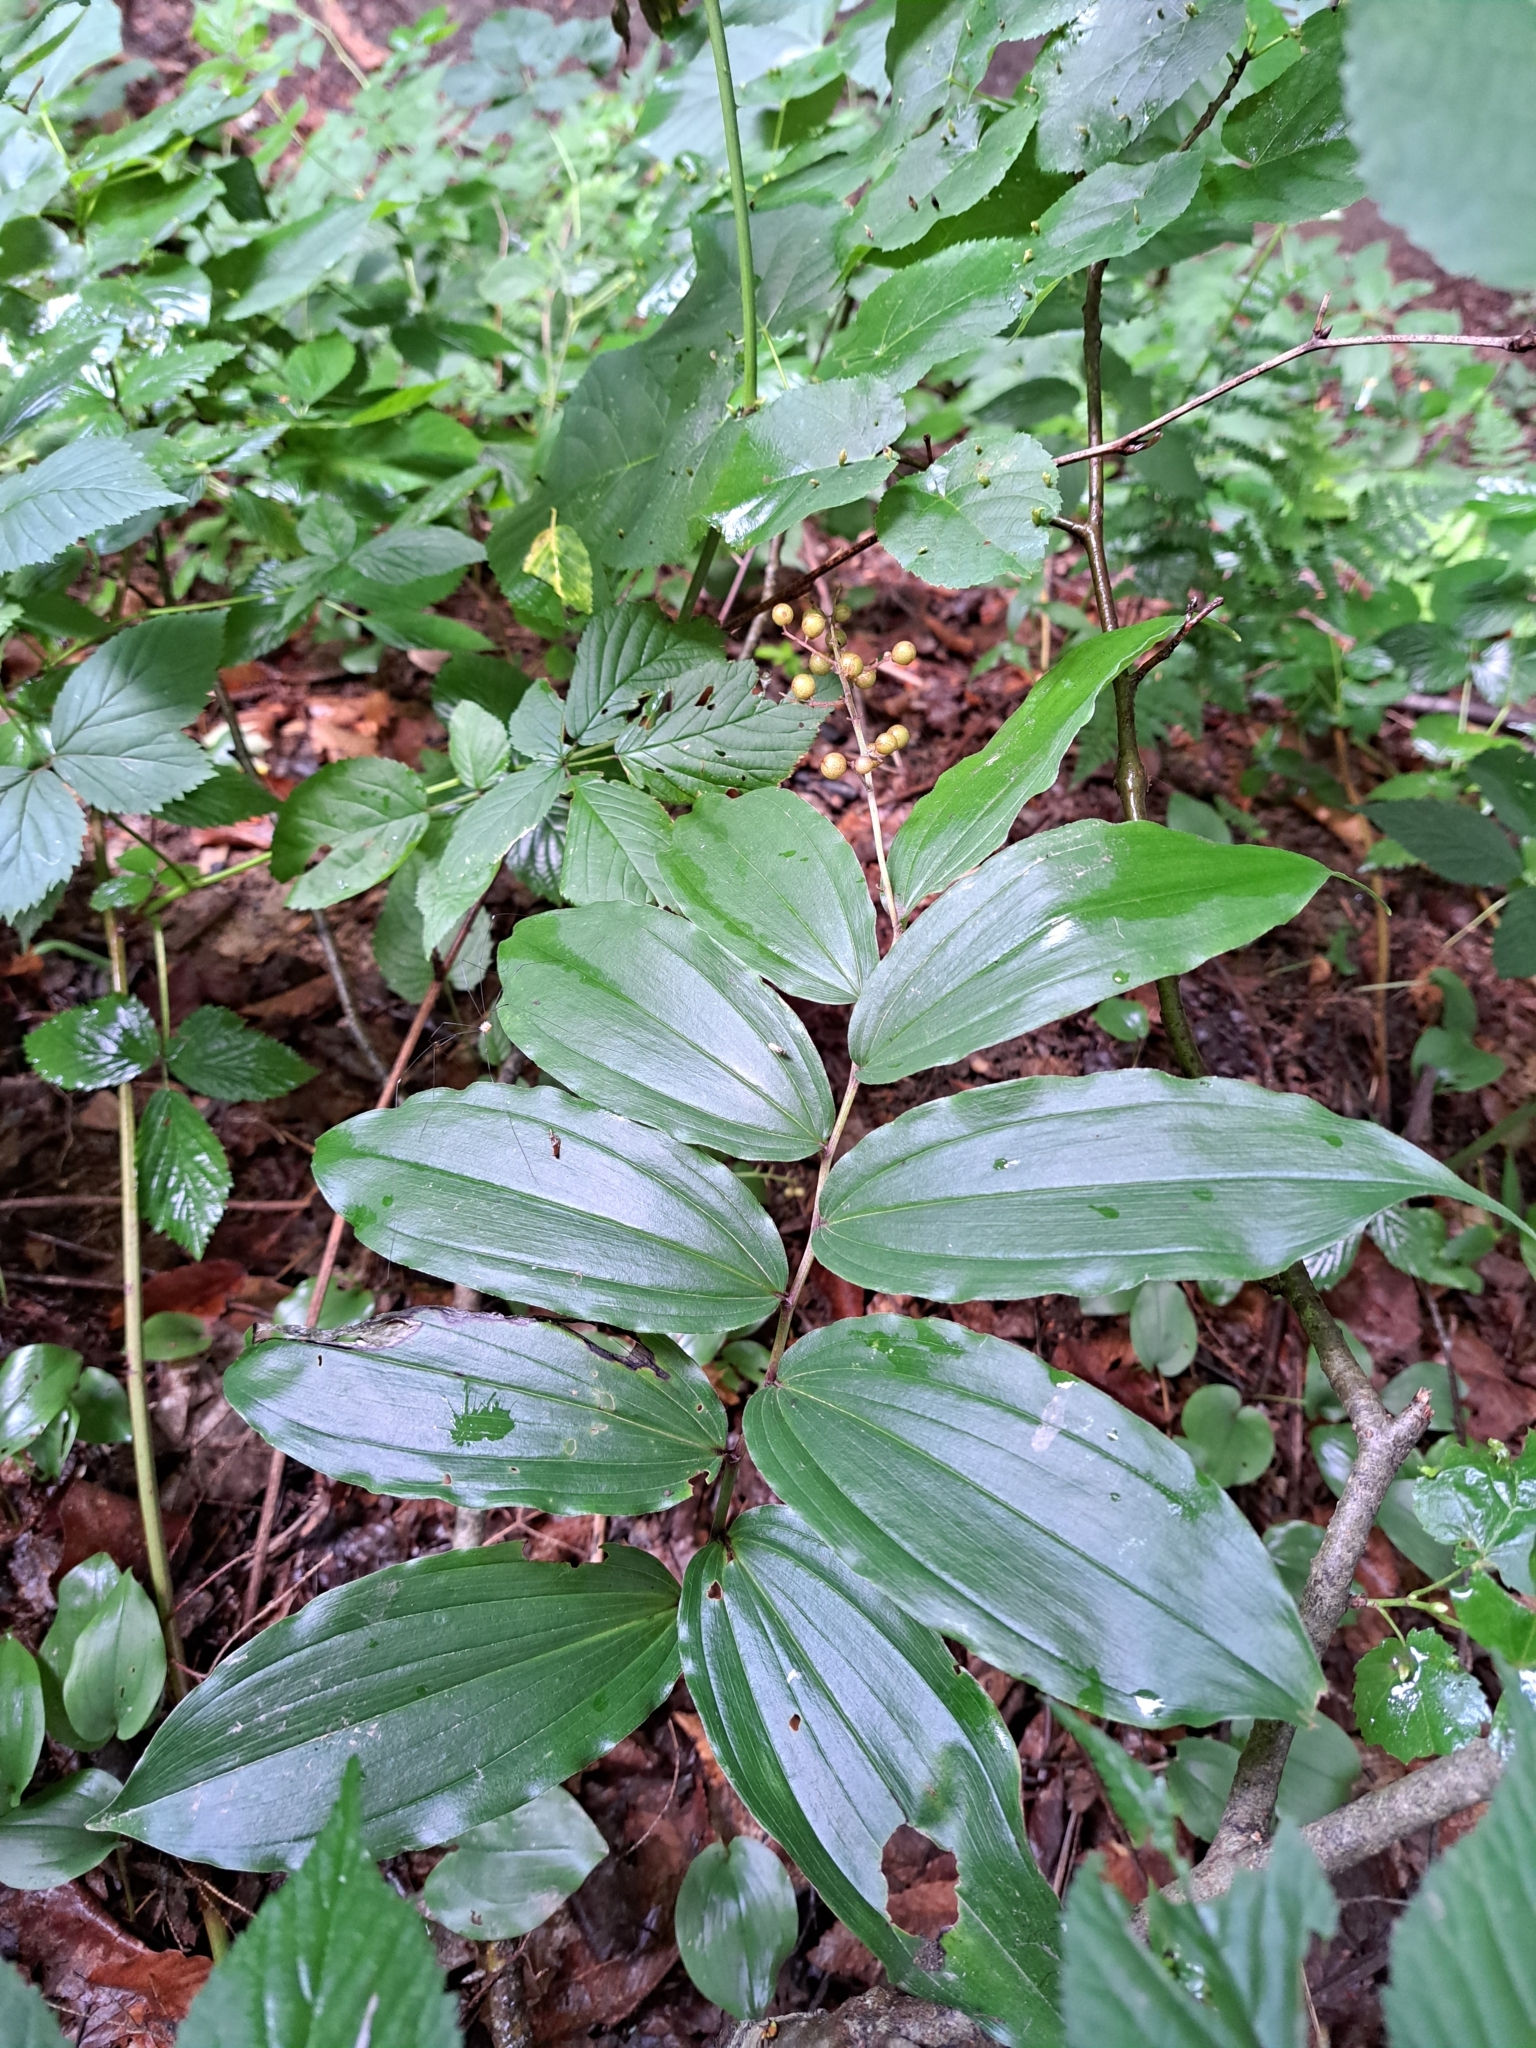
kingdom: Plantae
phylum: Tracheophyta
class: Liliopsida
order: Asparagales
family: Asparagaceae
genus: Maianthemum
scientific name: Maianthemum racemosum
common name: False spikenard
